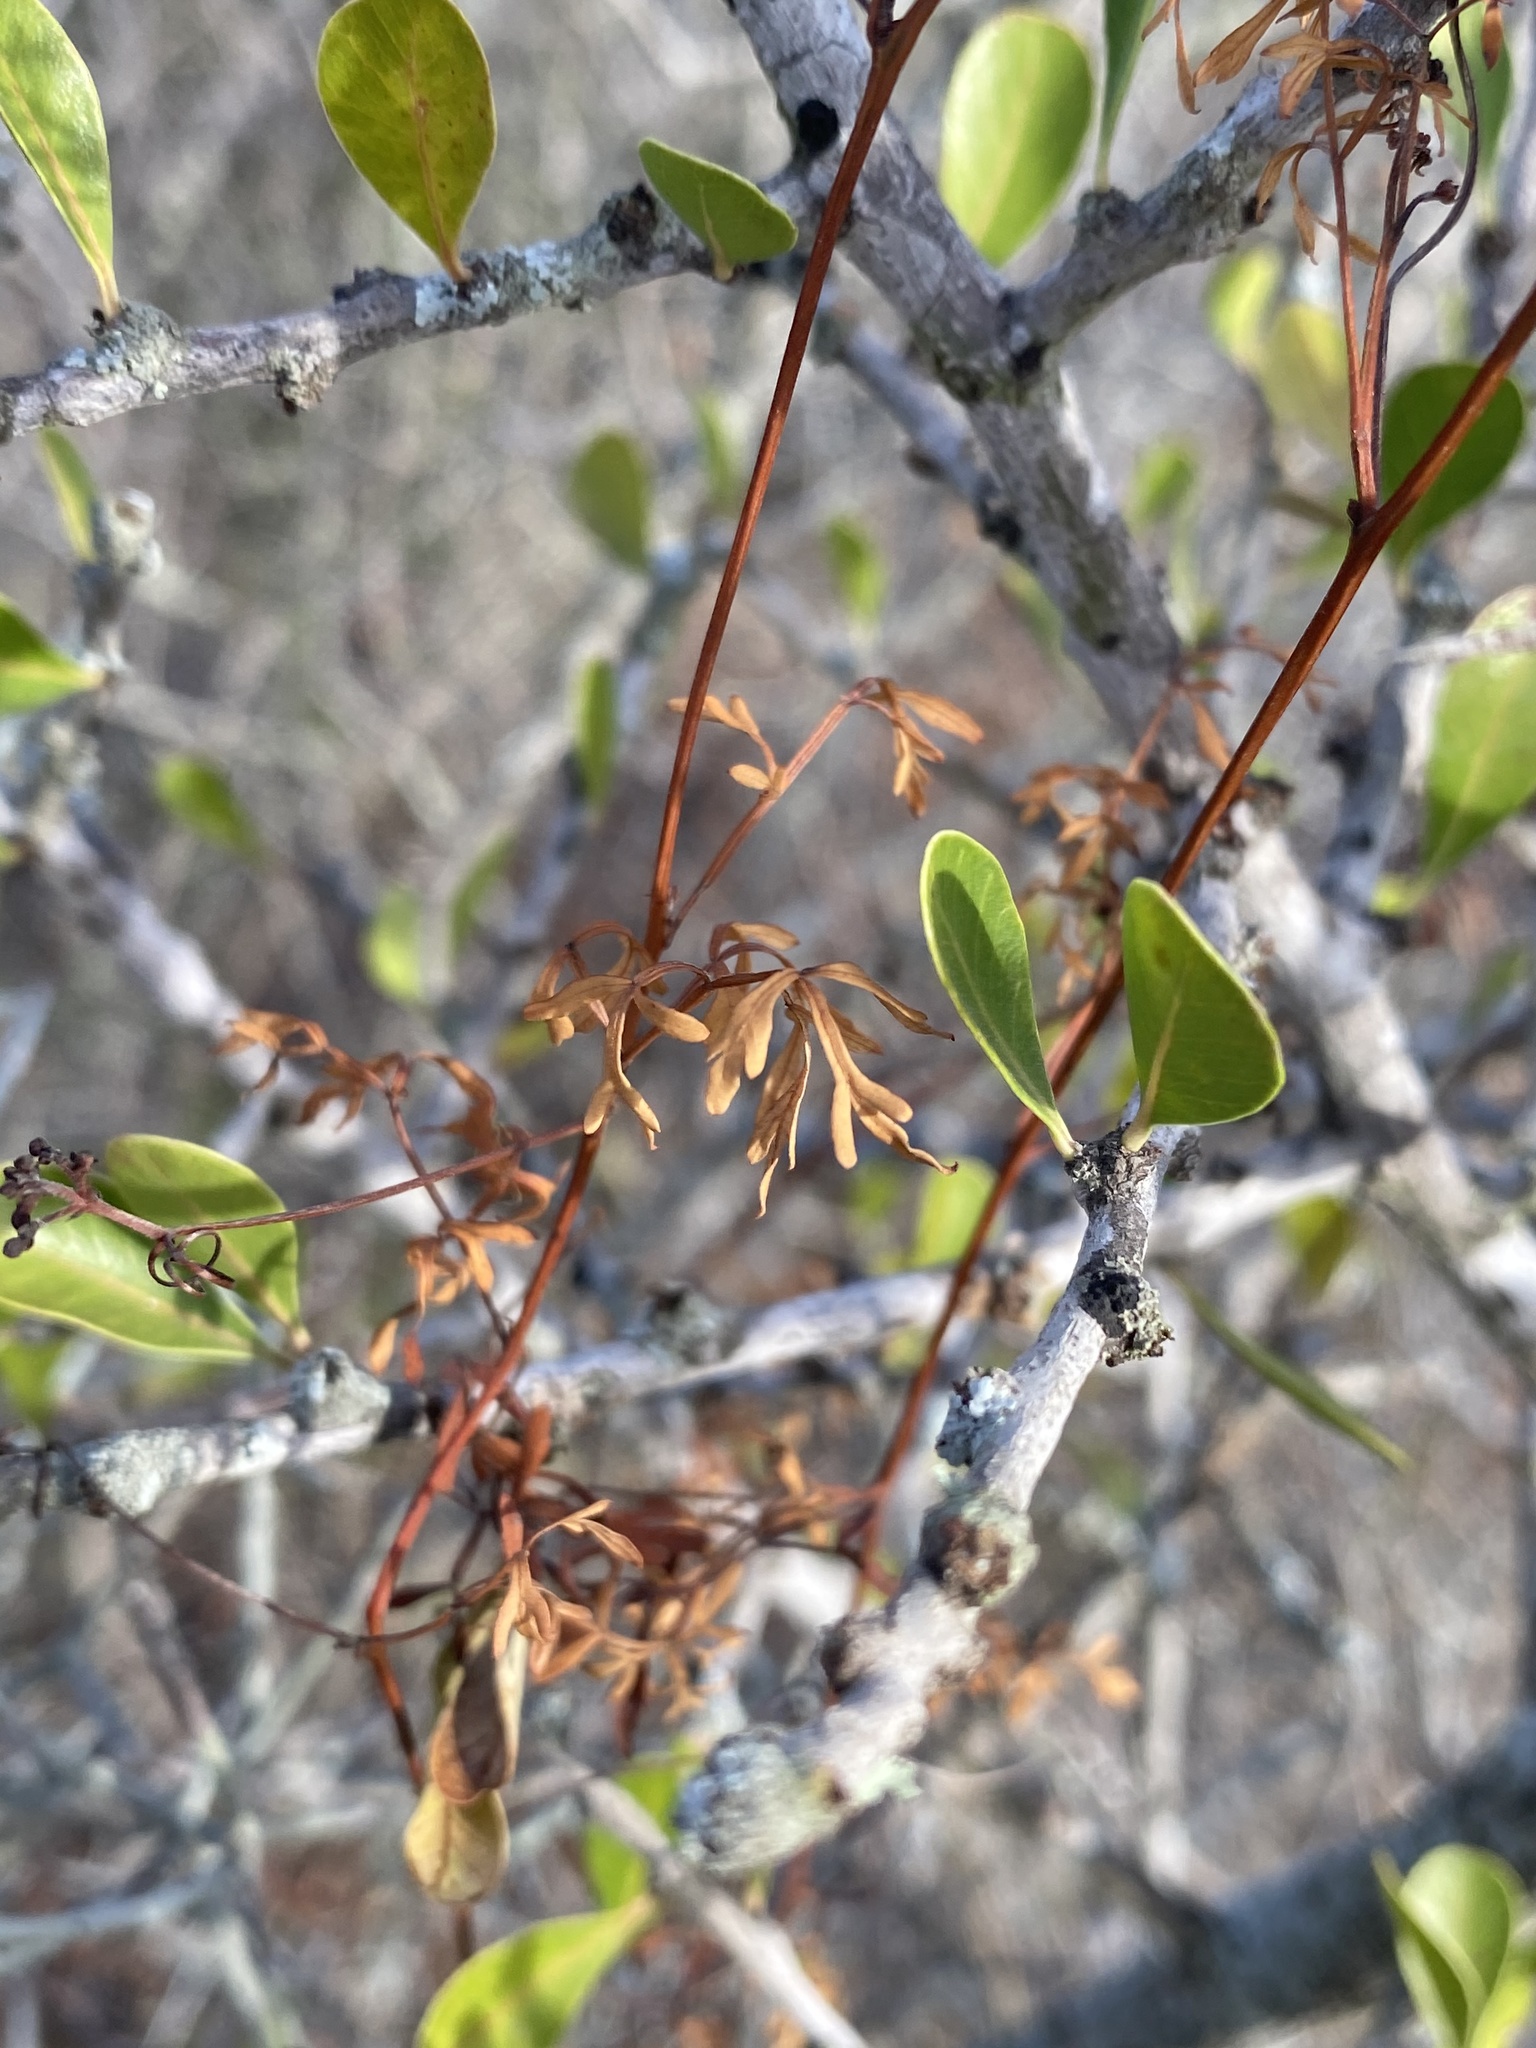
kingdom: Plantae
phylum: Tracheophyta
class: Magnoliopsida
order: Sapindales
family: Sapindaceae
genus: Serjania
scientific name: Serjania dissecta
